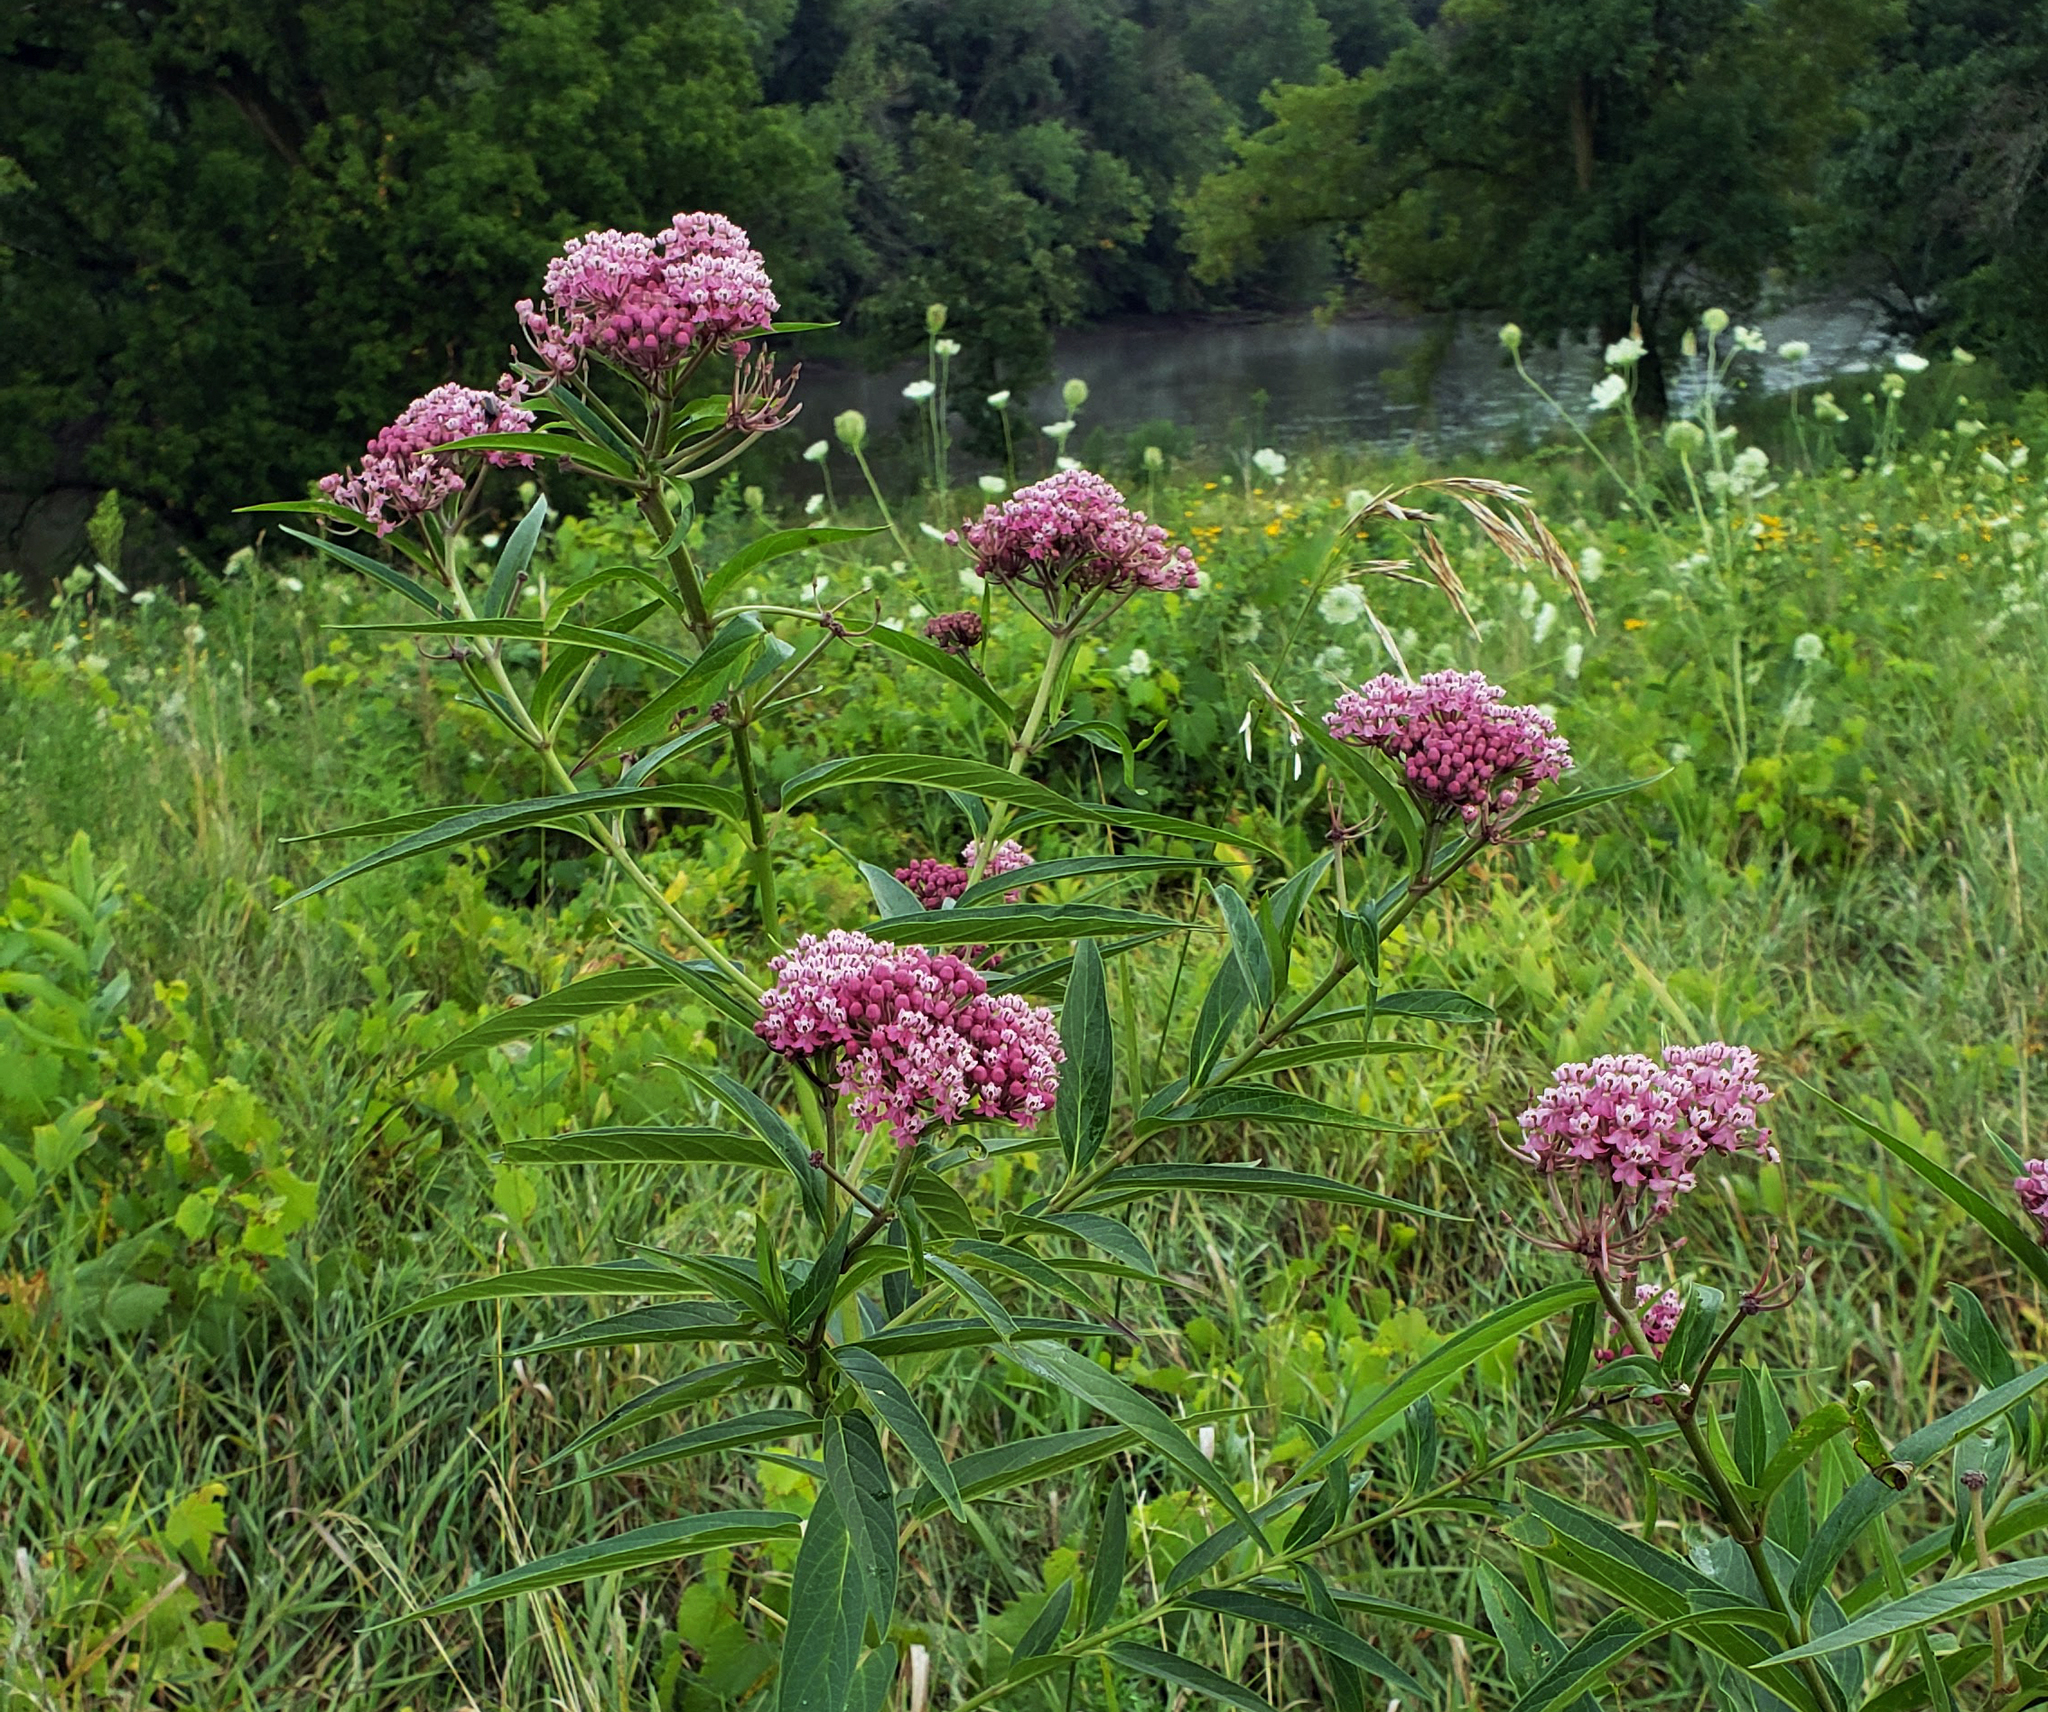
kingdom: Plantae
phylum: Tracheophyta
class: Magnoliopsida
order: Gentianales
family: Apocynaceae
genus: Asclepias
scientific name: Asclepias incarnata
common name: Swamp milkweed
